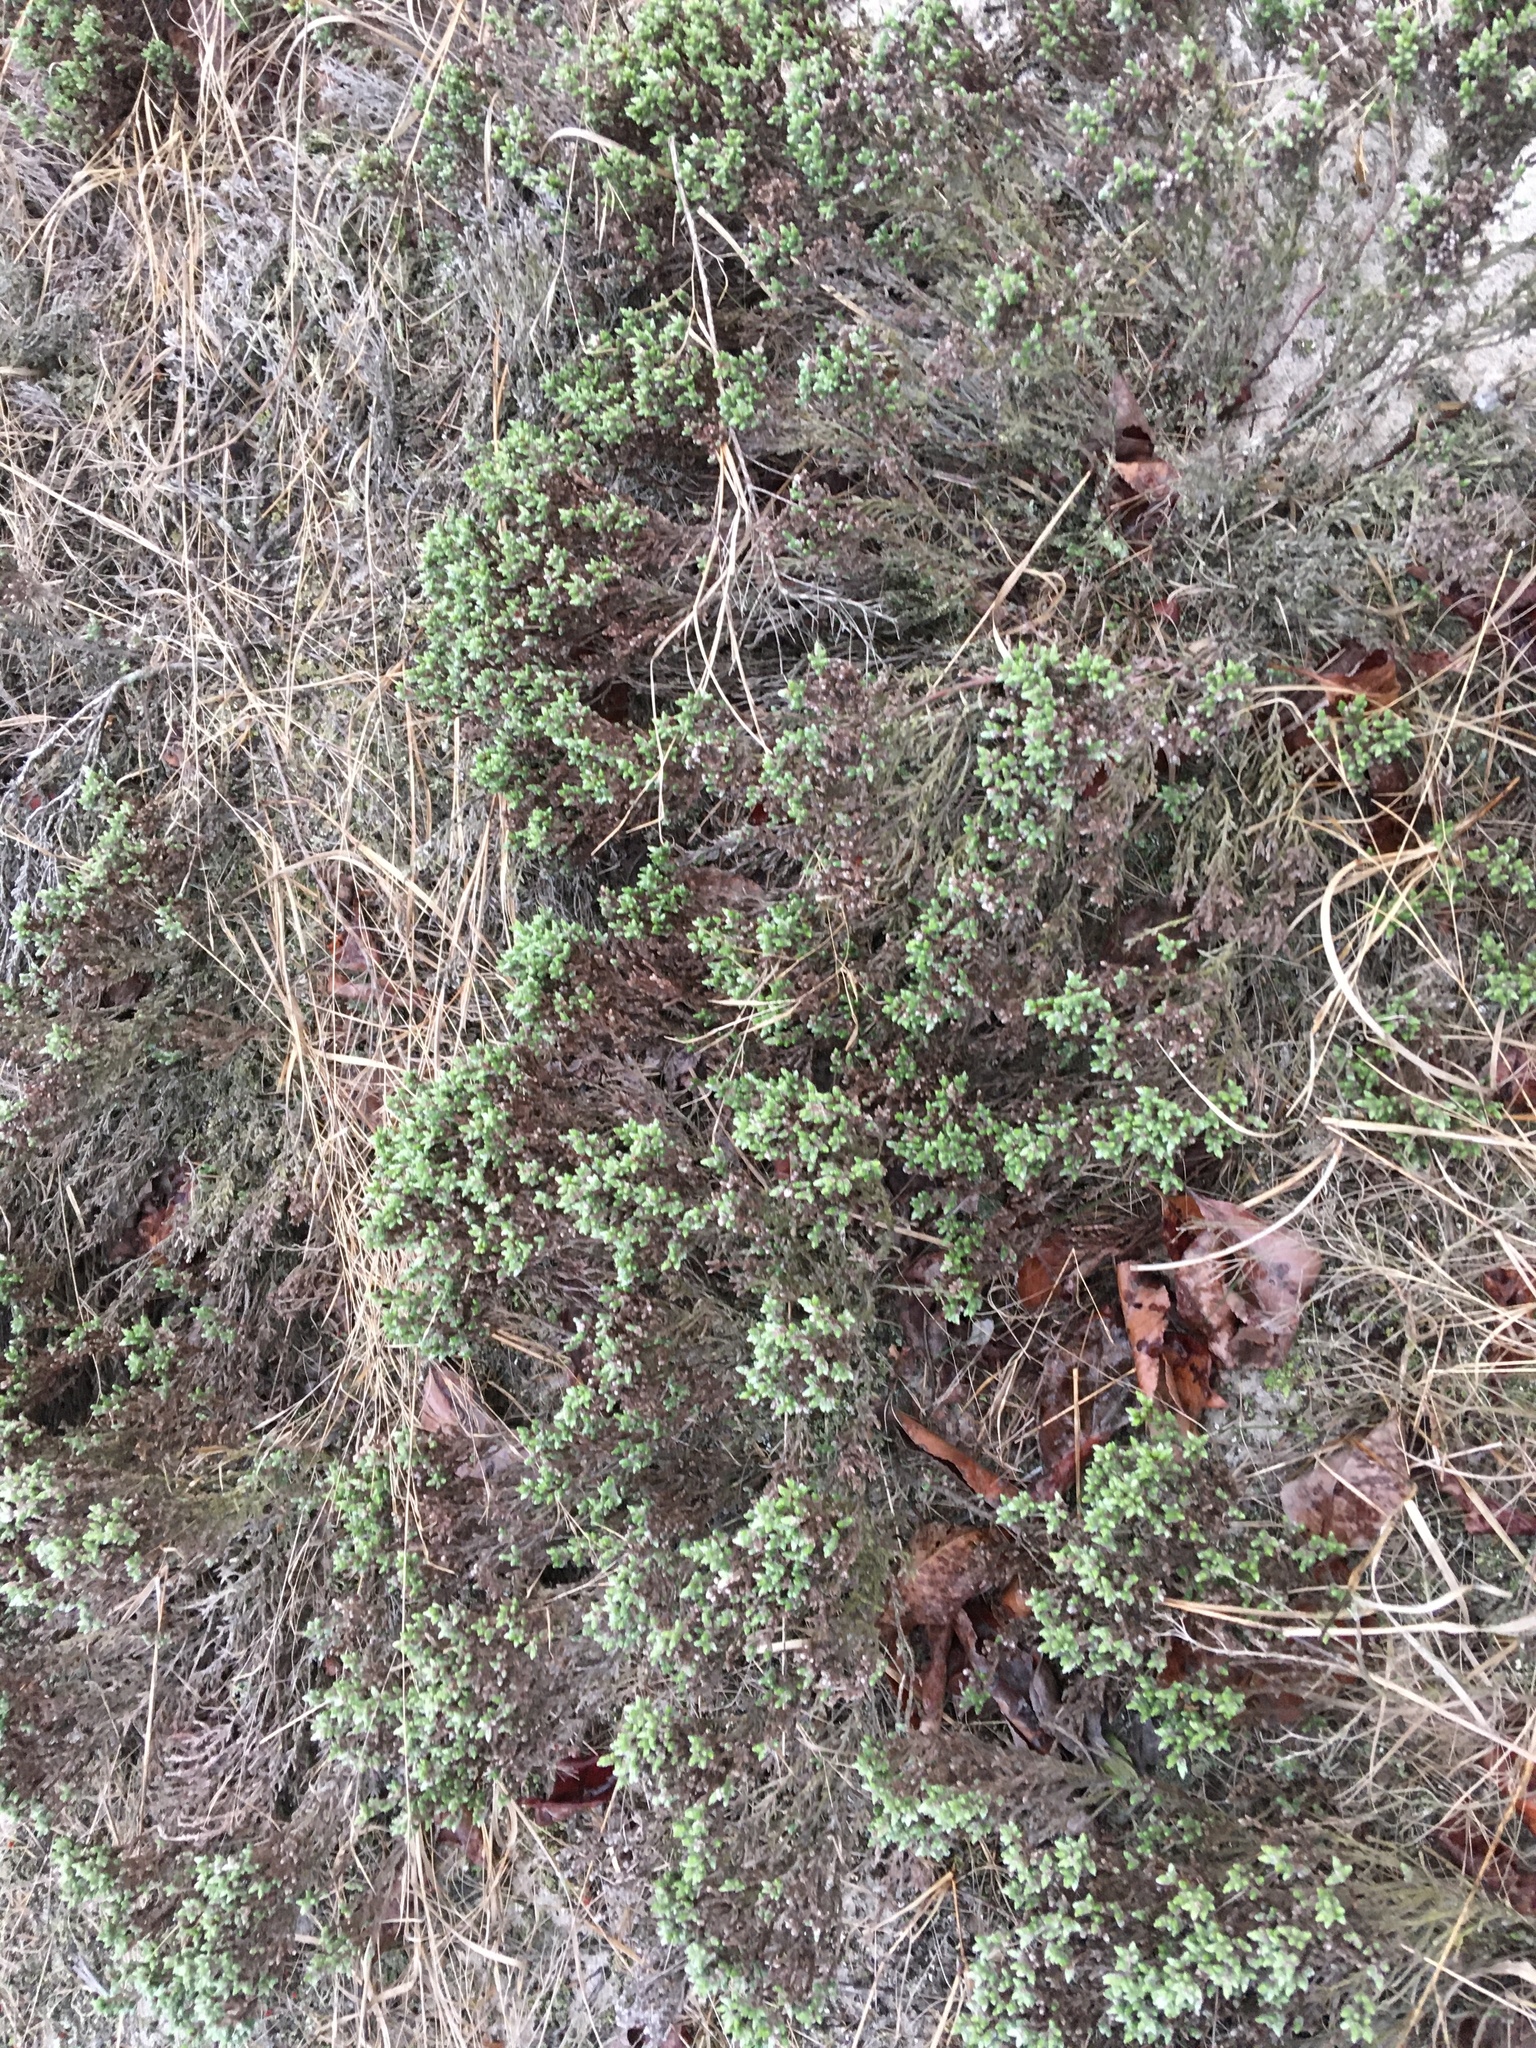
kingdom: Plantae
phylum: Tracheophyta
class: Magnoliopsida
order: Malvales
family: Cistaceae
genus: Hudsonia
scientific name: Hudsonia tomentosa
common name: Beach-heath
